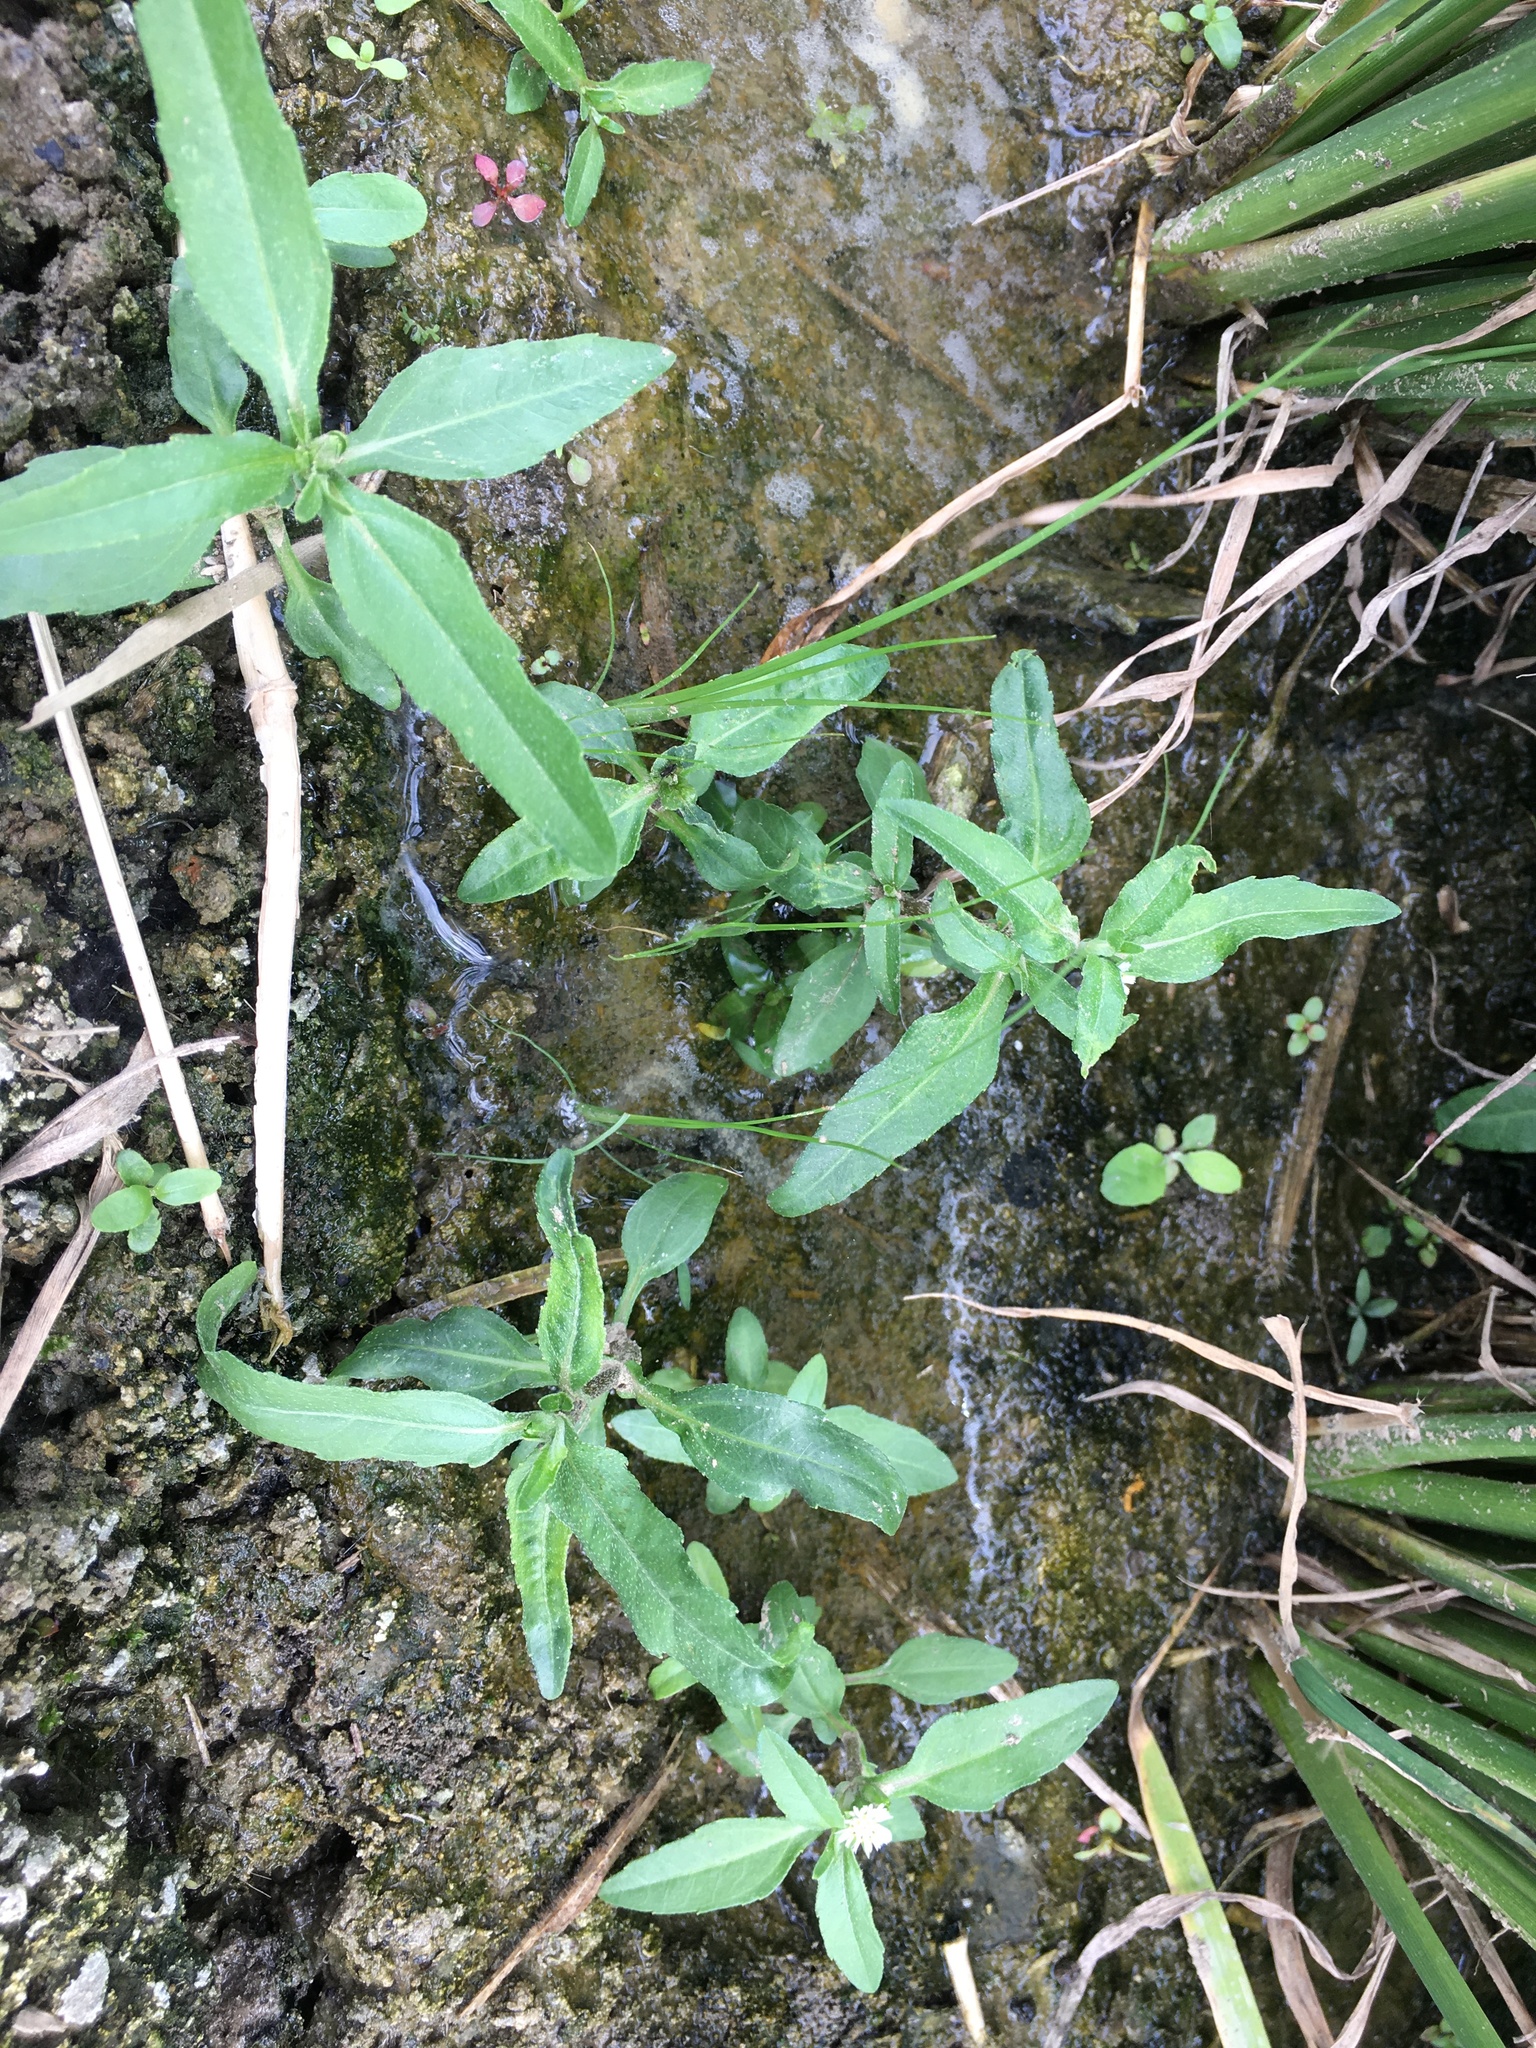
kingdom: Plantae
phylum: Tracheophyta
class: Magnoliopsida
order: Asterales
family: Asteraceae
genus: Eclipta
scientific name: Eclipta prostrata
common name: False daisy
